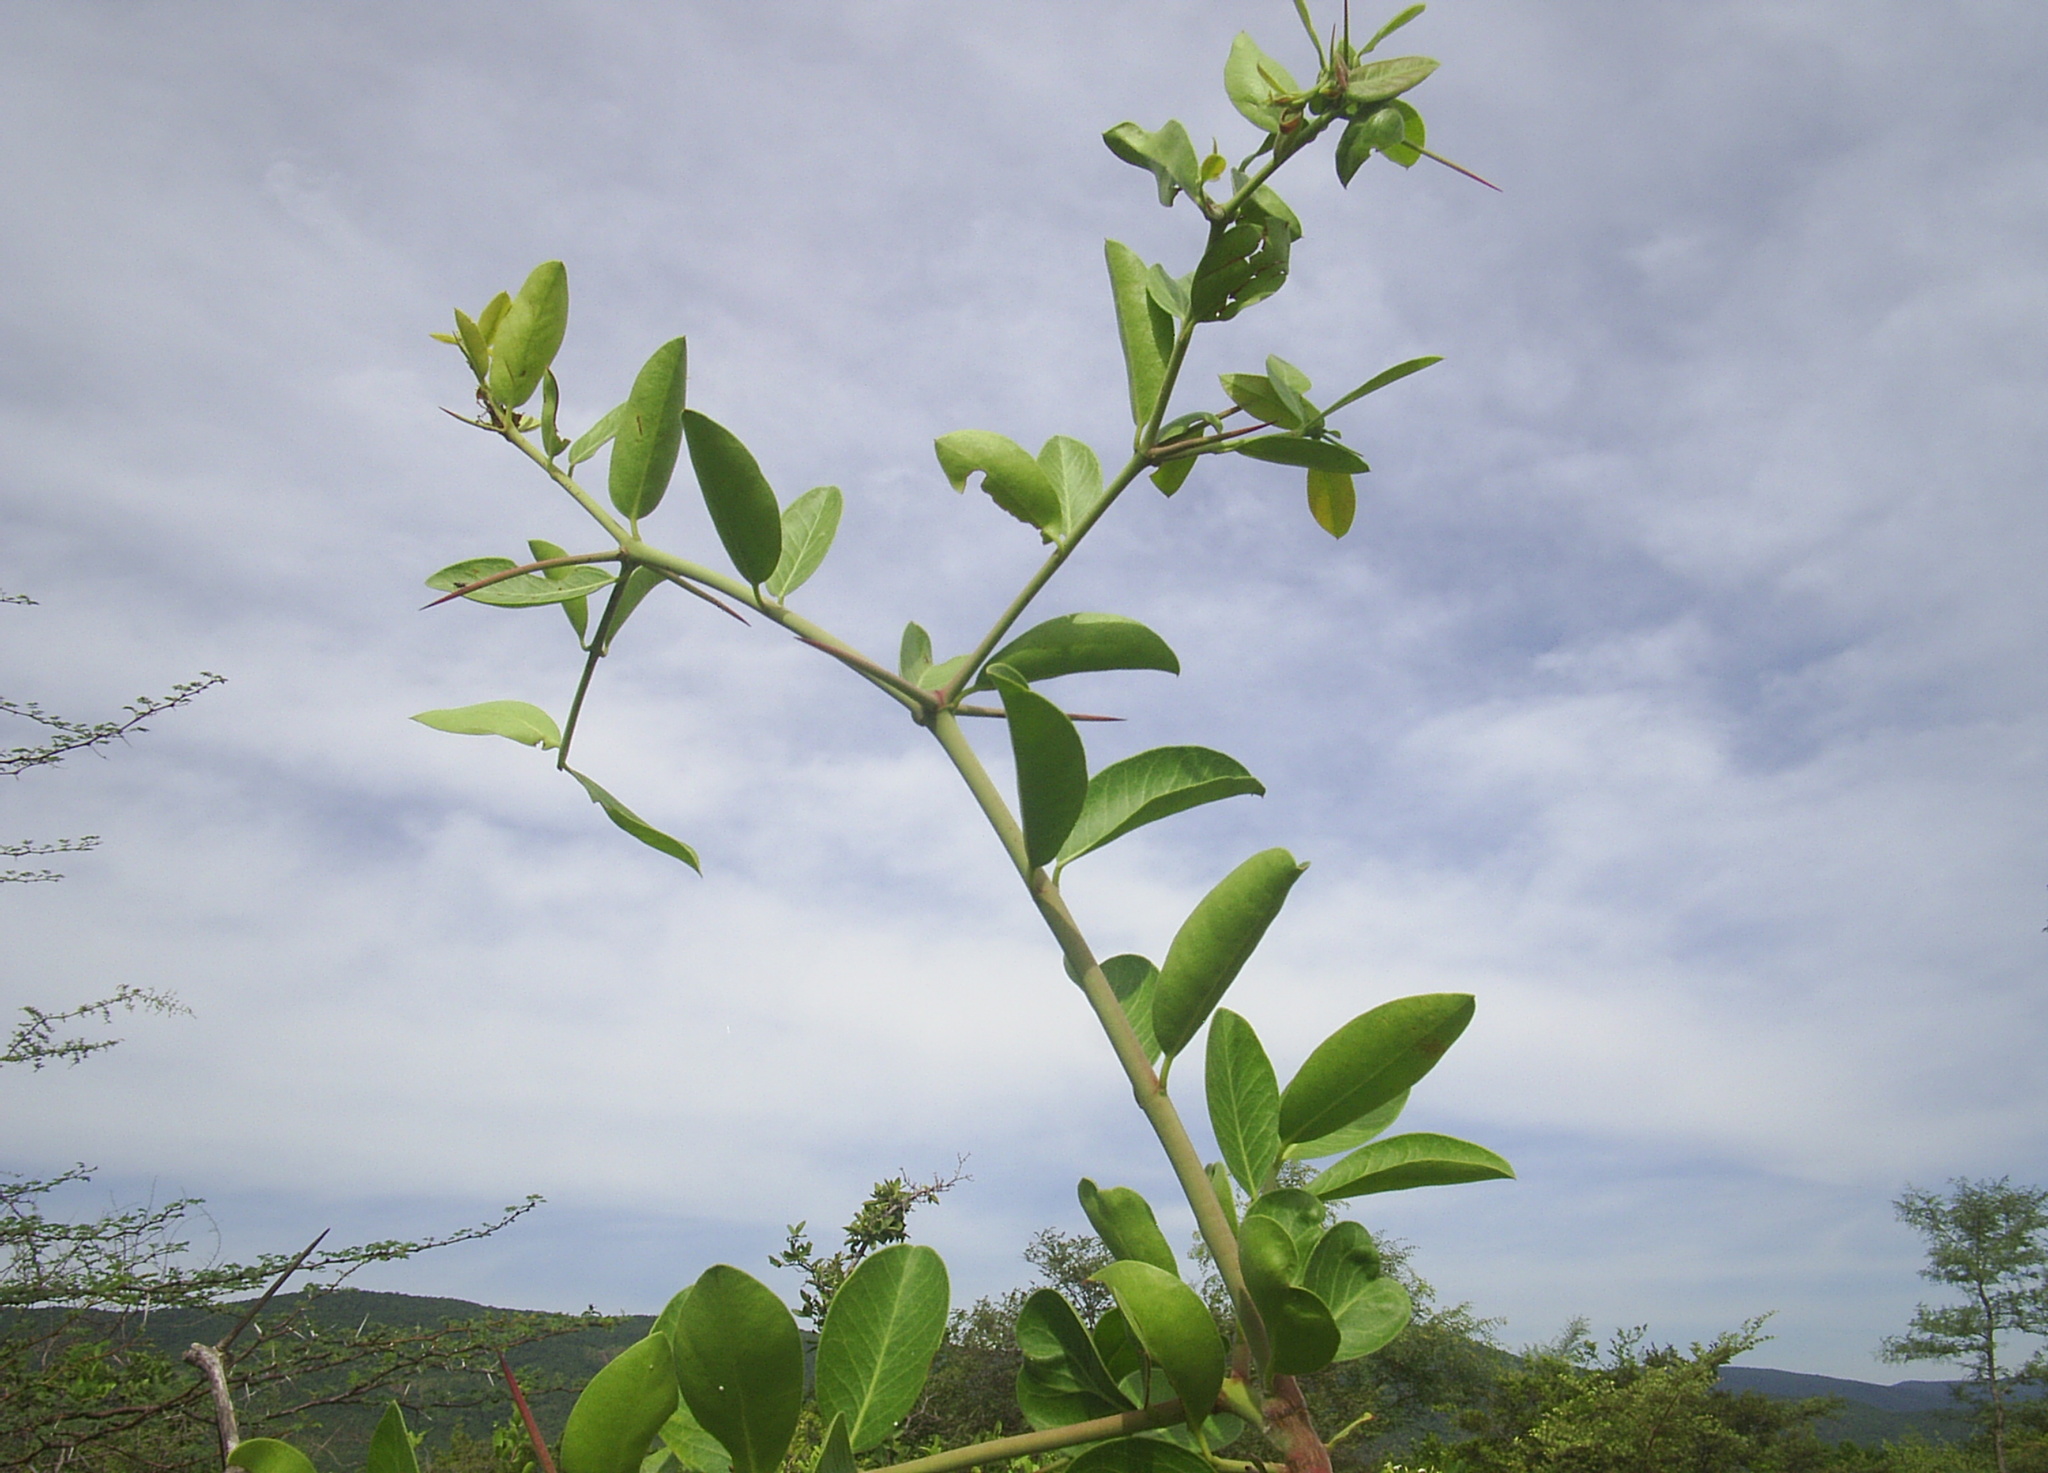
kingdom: Plantae
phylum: Tracheophyta
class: Magnoliopsida
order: Gentianales
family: Apocynaceae
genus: Carissa
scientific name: Carissa carandas
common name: Karanda
